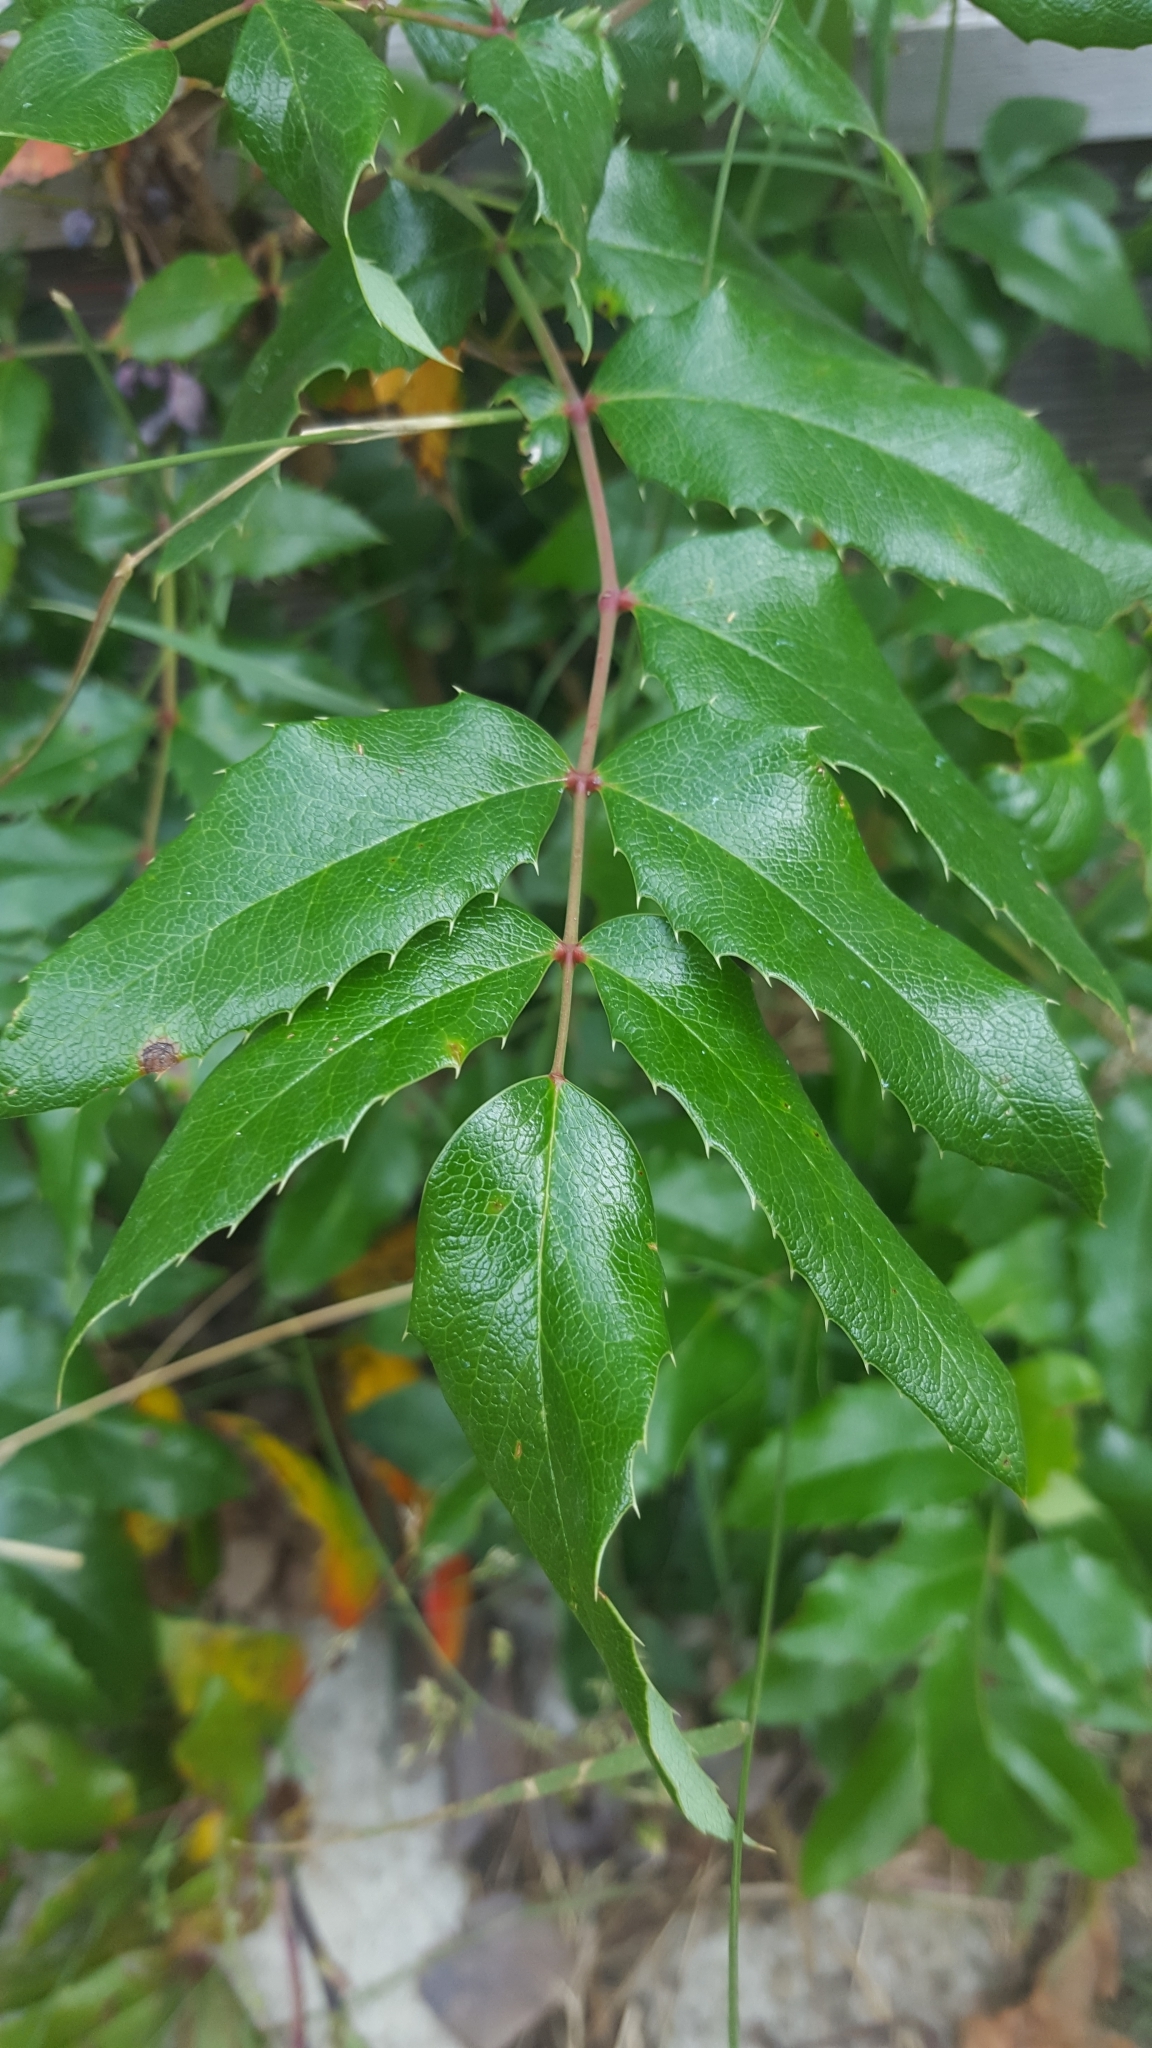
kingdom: Plantae
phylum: Tracheophyta
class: Magnoliopsida
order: Ranunculales
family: Berberidaceae
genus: Mahonia
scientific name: Mahonia aquifolium
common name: Oregon-grape
